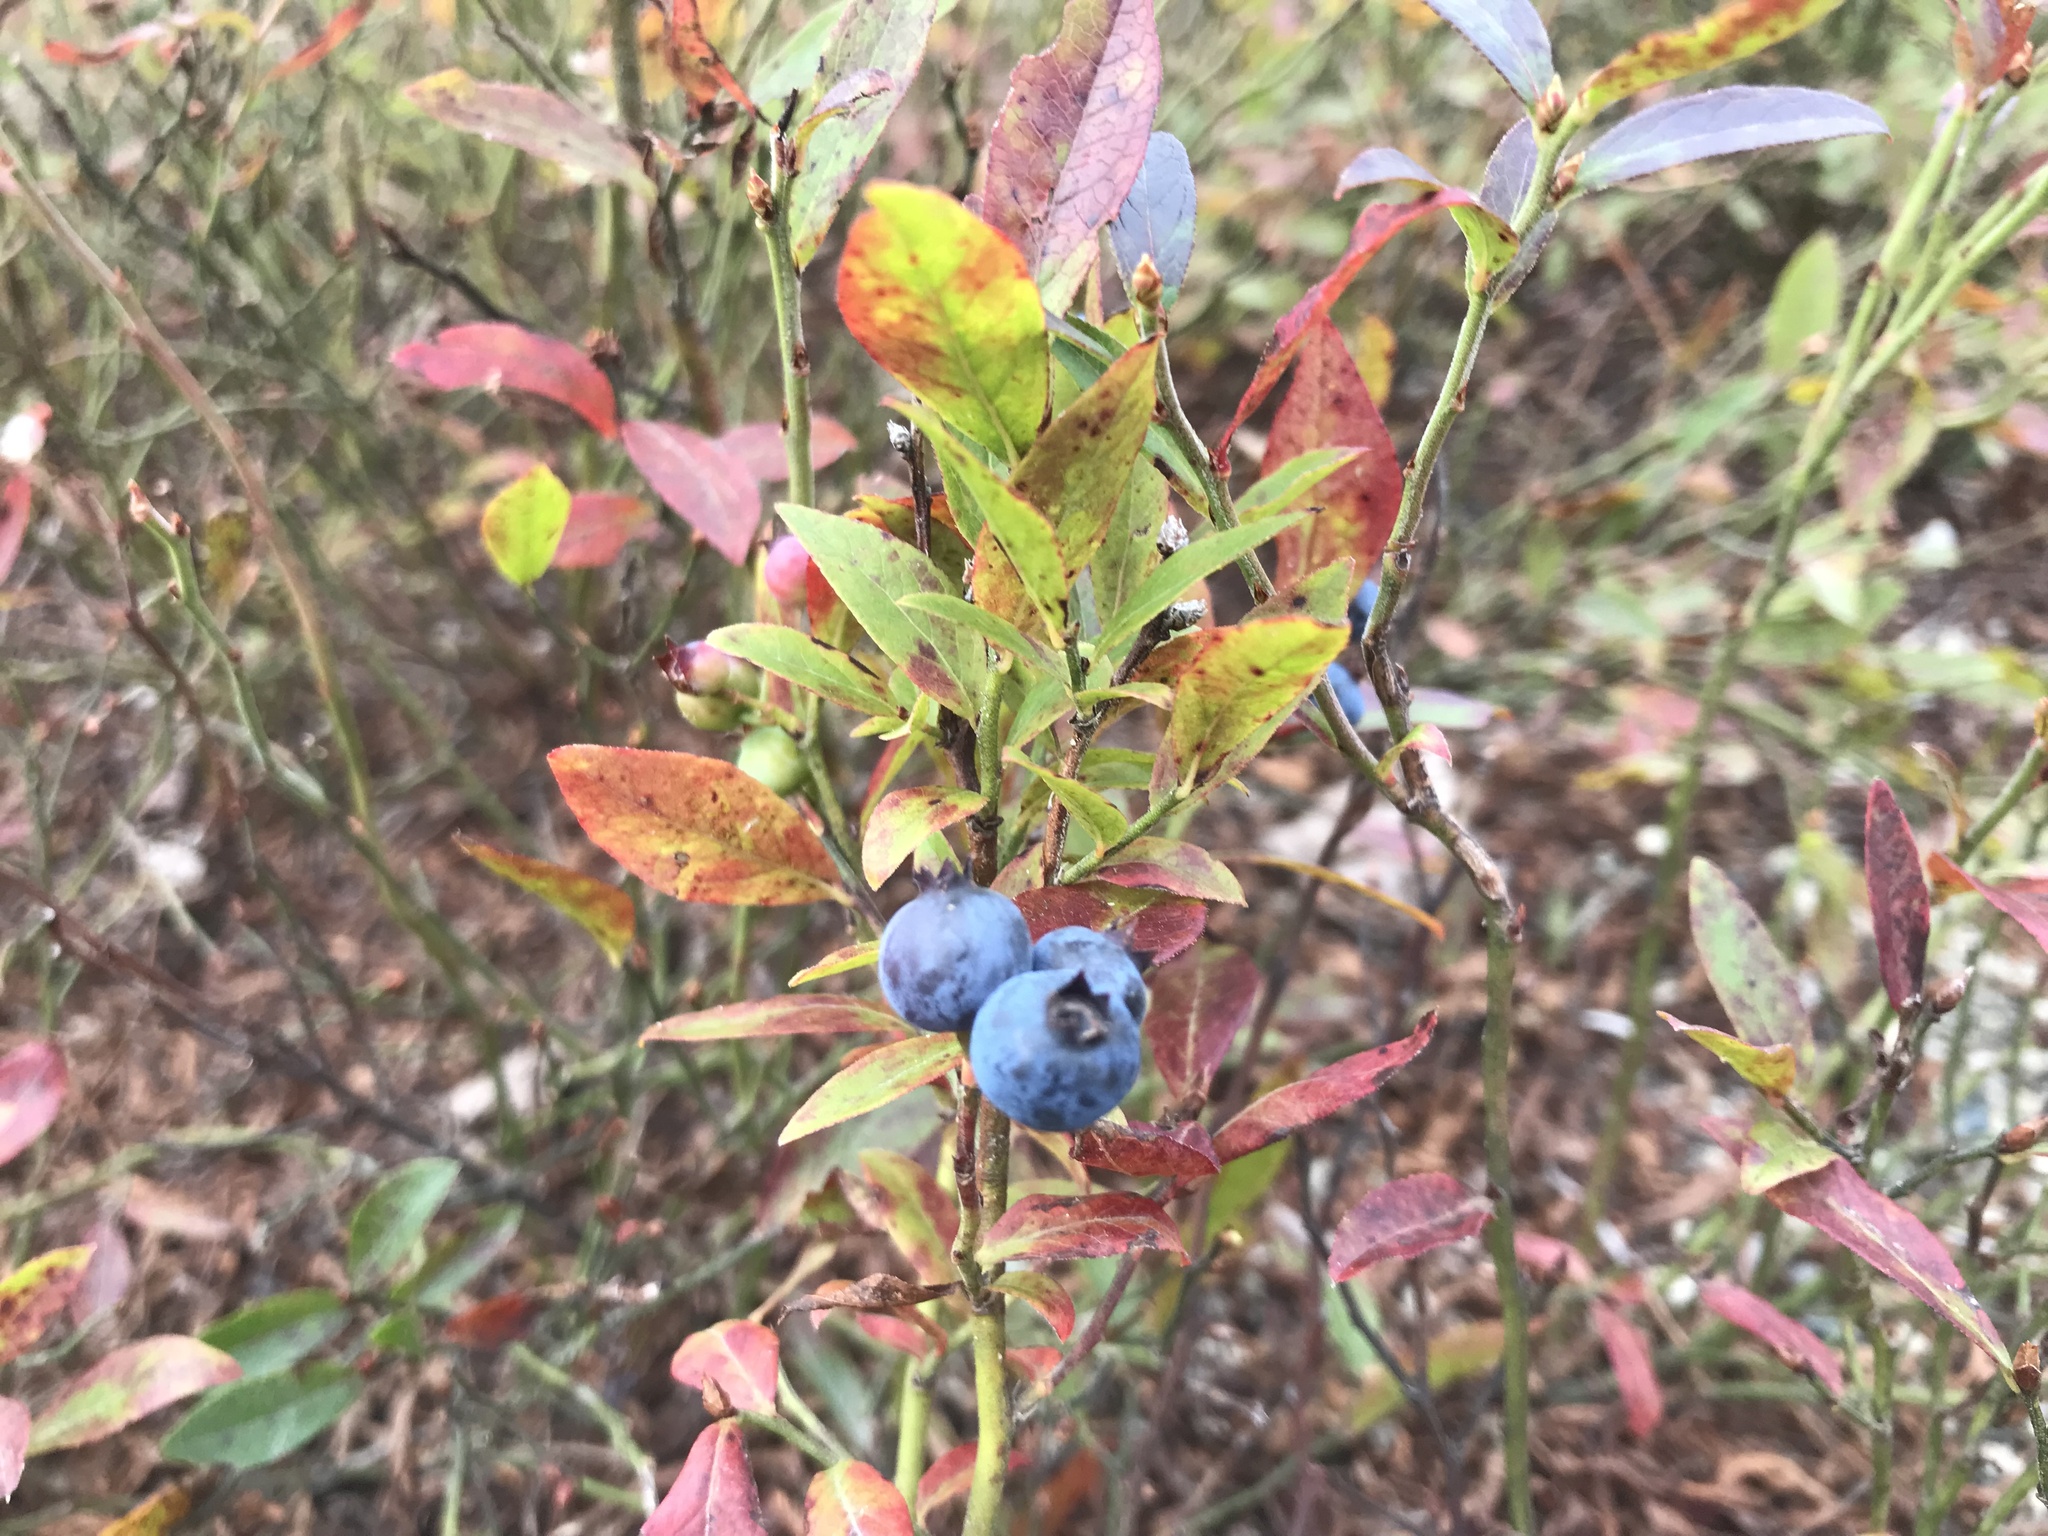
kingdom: Plantae
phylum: Tracheophyta
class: Magnoliopsida
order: Ericales
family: Ericaceae
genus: Vaccinium
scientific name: Vaccinium angustifolium
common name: Early lowbush blueberry
